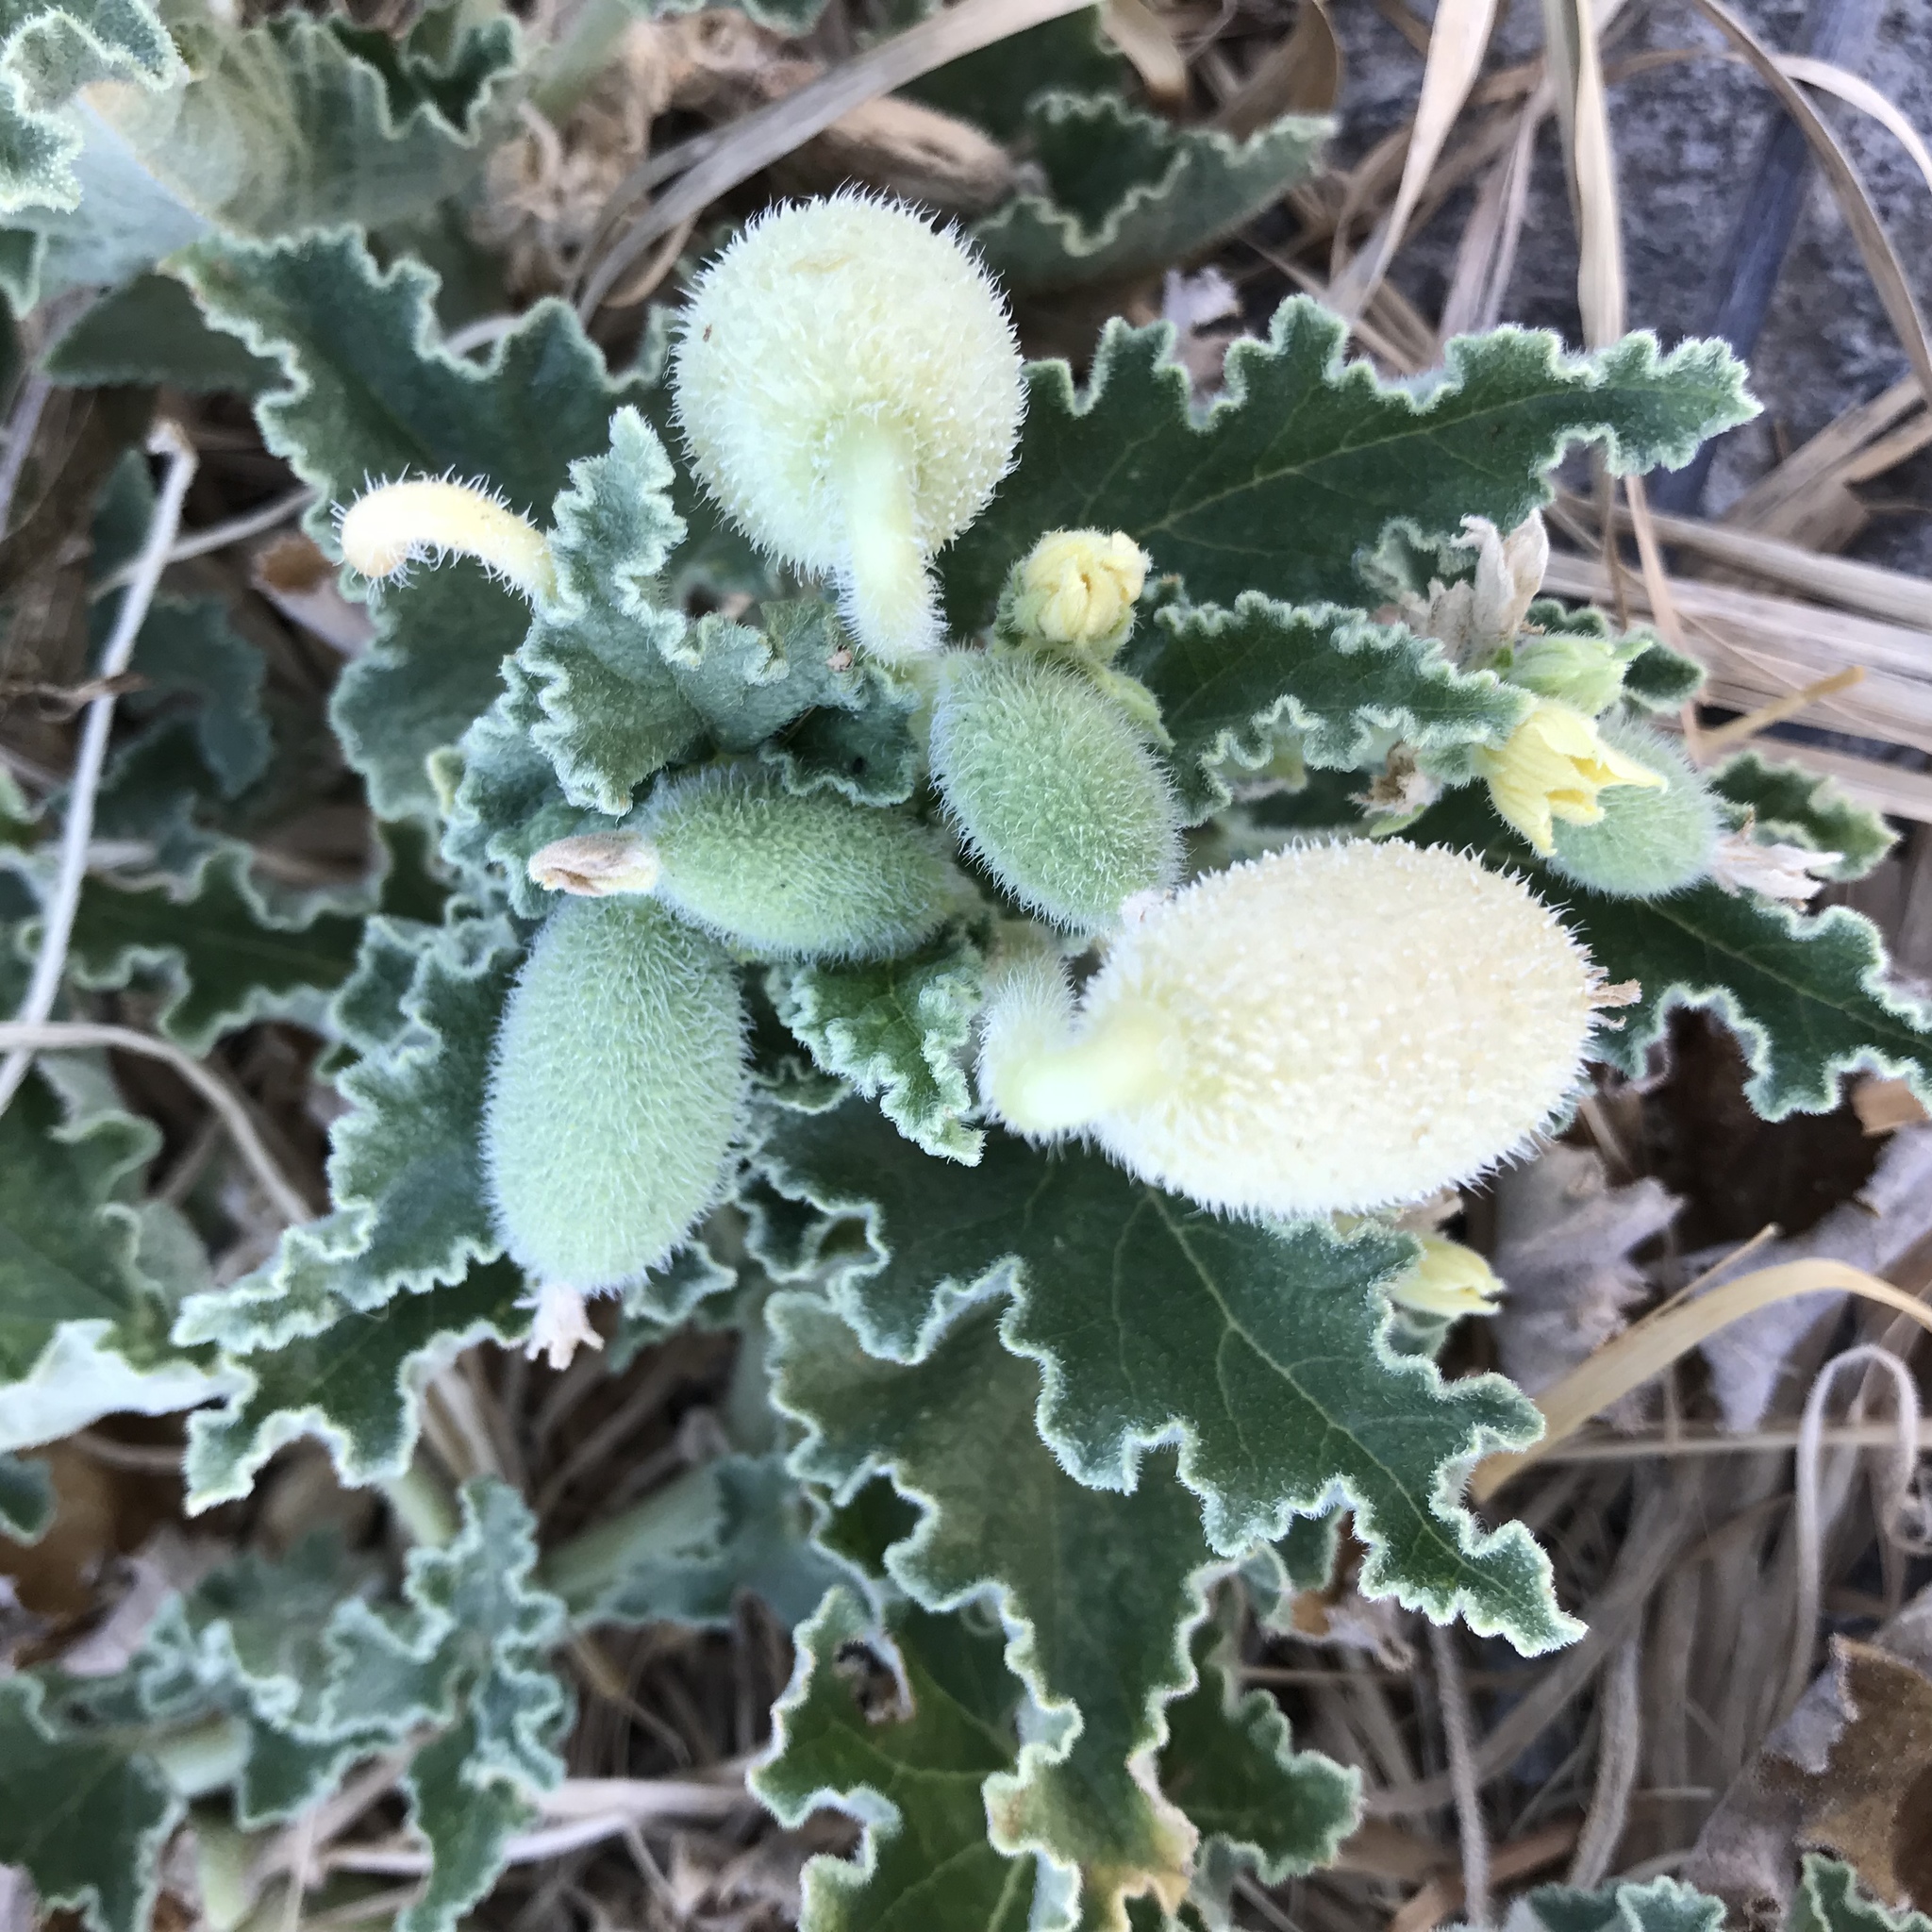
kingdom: Plantae
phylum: Tracheophyta
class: Magnoliopsida
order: Cucurbitales
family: Cucurbitaceae
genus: Ecballium
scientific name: Ecballium elaterium
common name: Squirting cucumber
